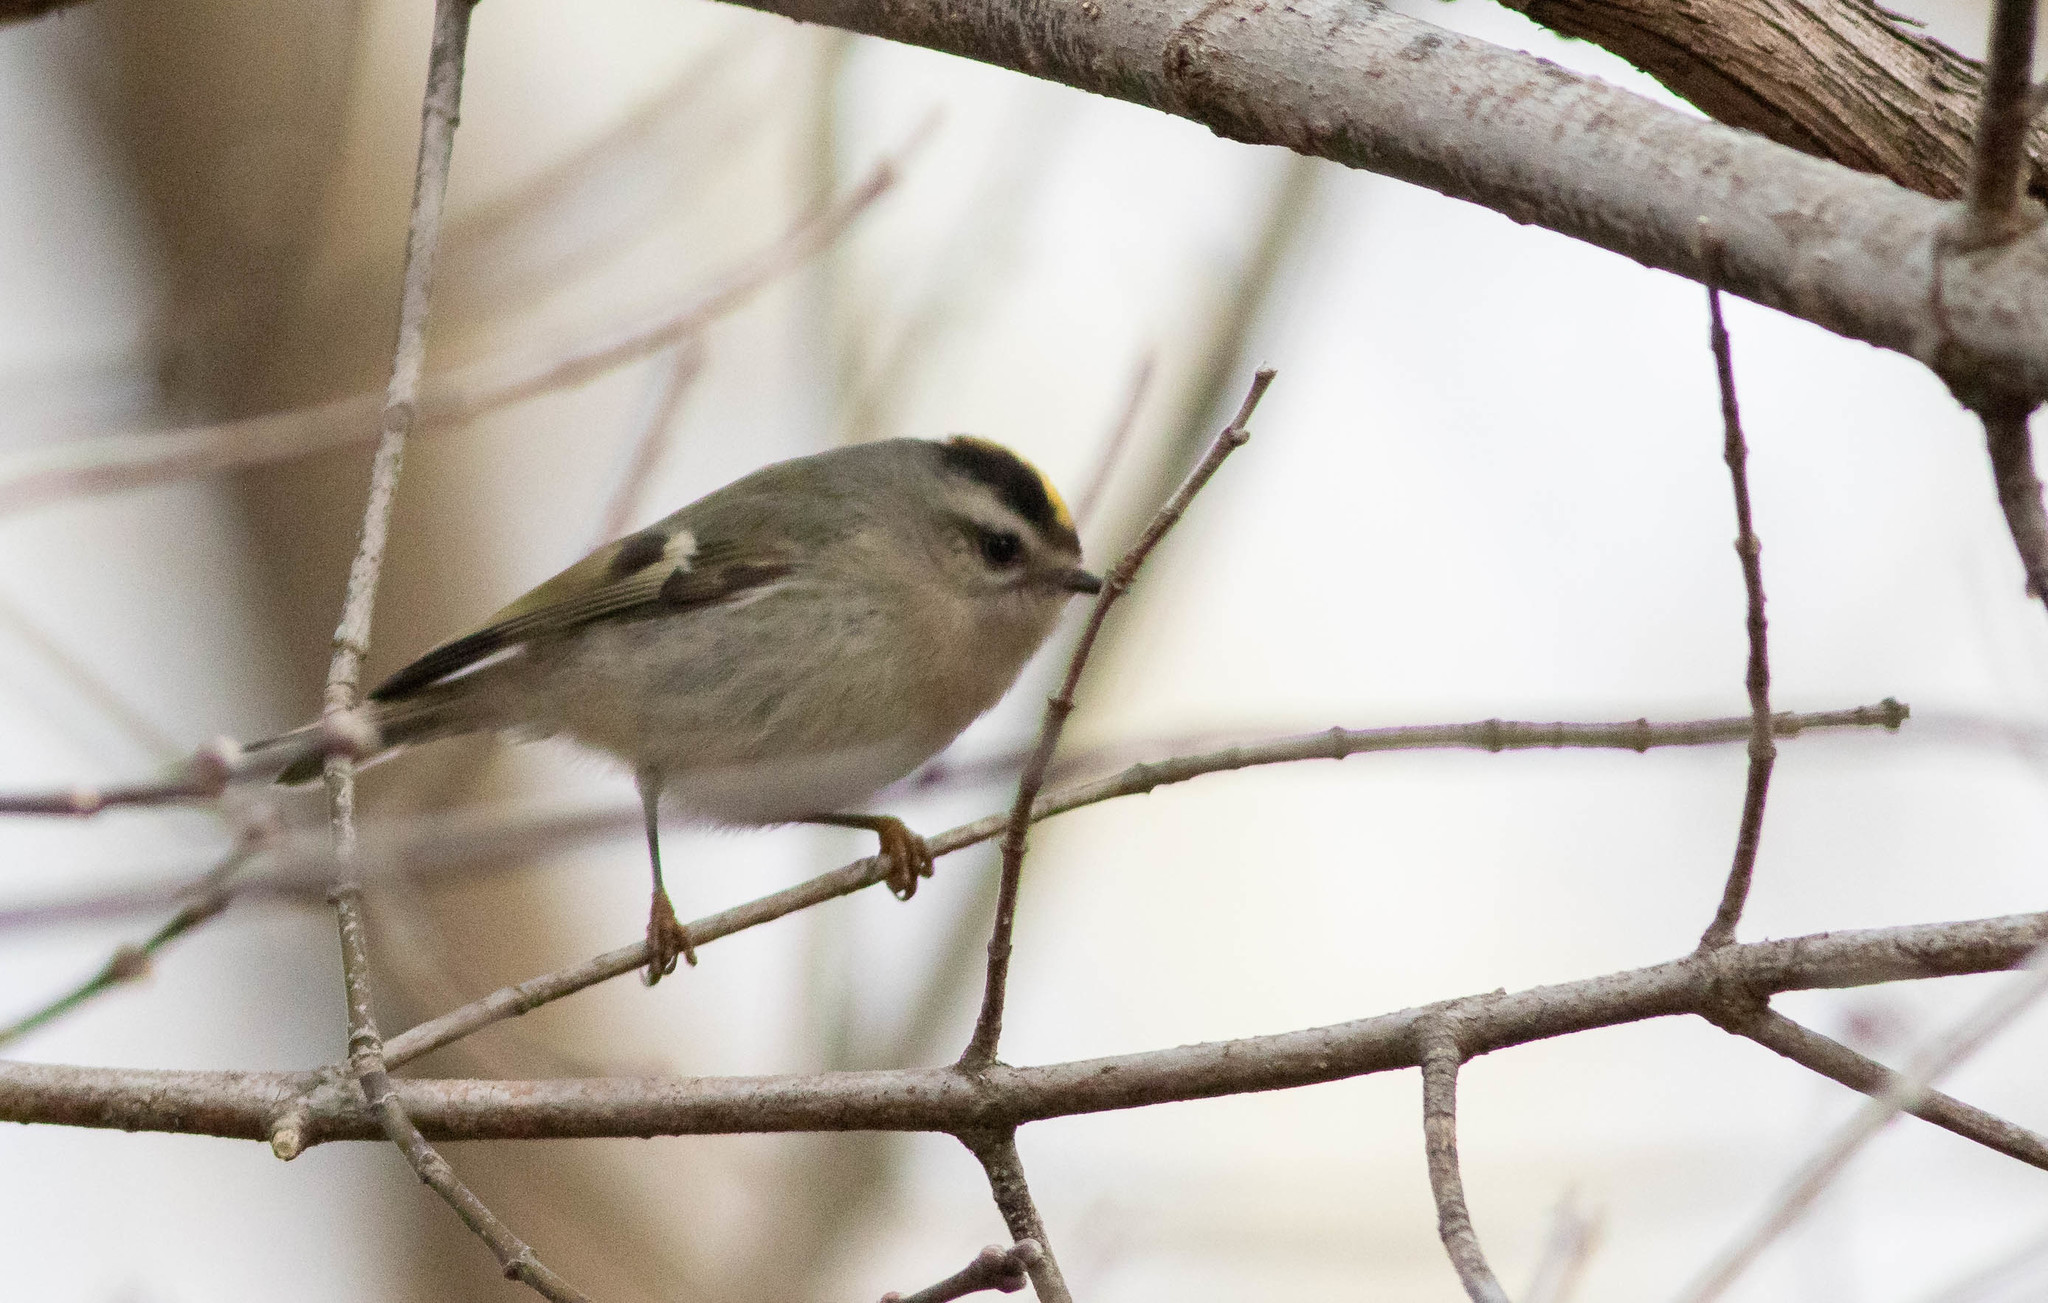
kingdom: Animalia
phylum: Chordata
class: Aves
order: Passeriformes
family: Regulidae
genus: Regulus
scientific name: Regulus satrapa
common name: Golden-crowned kinglet
